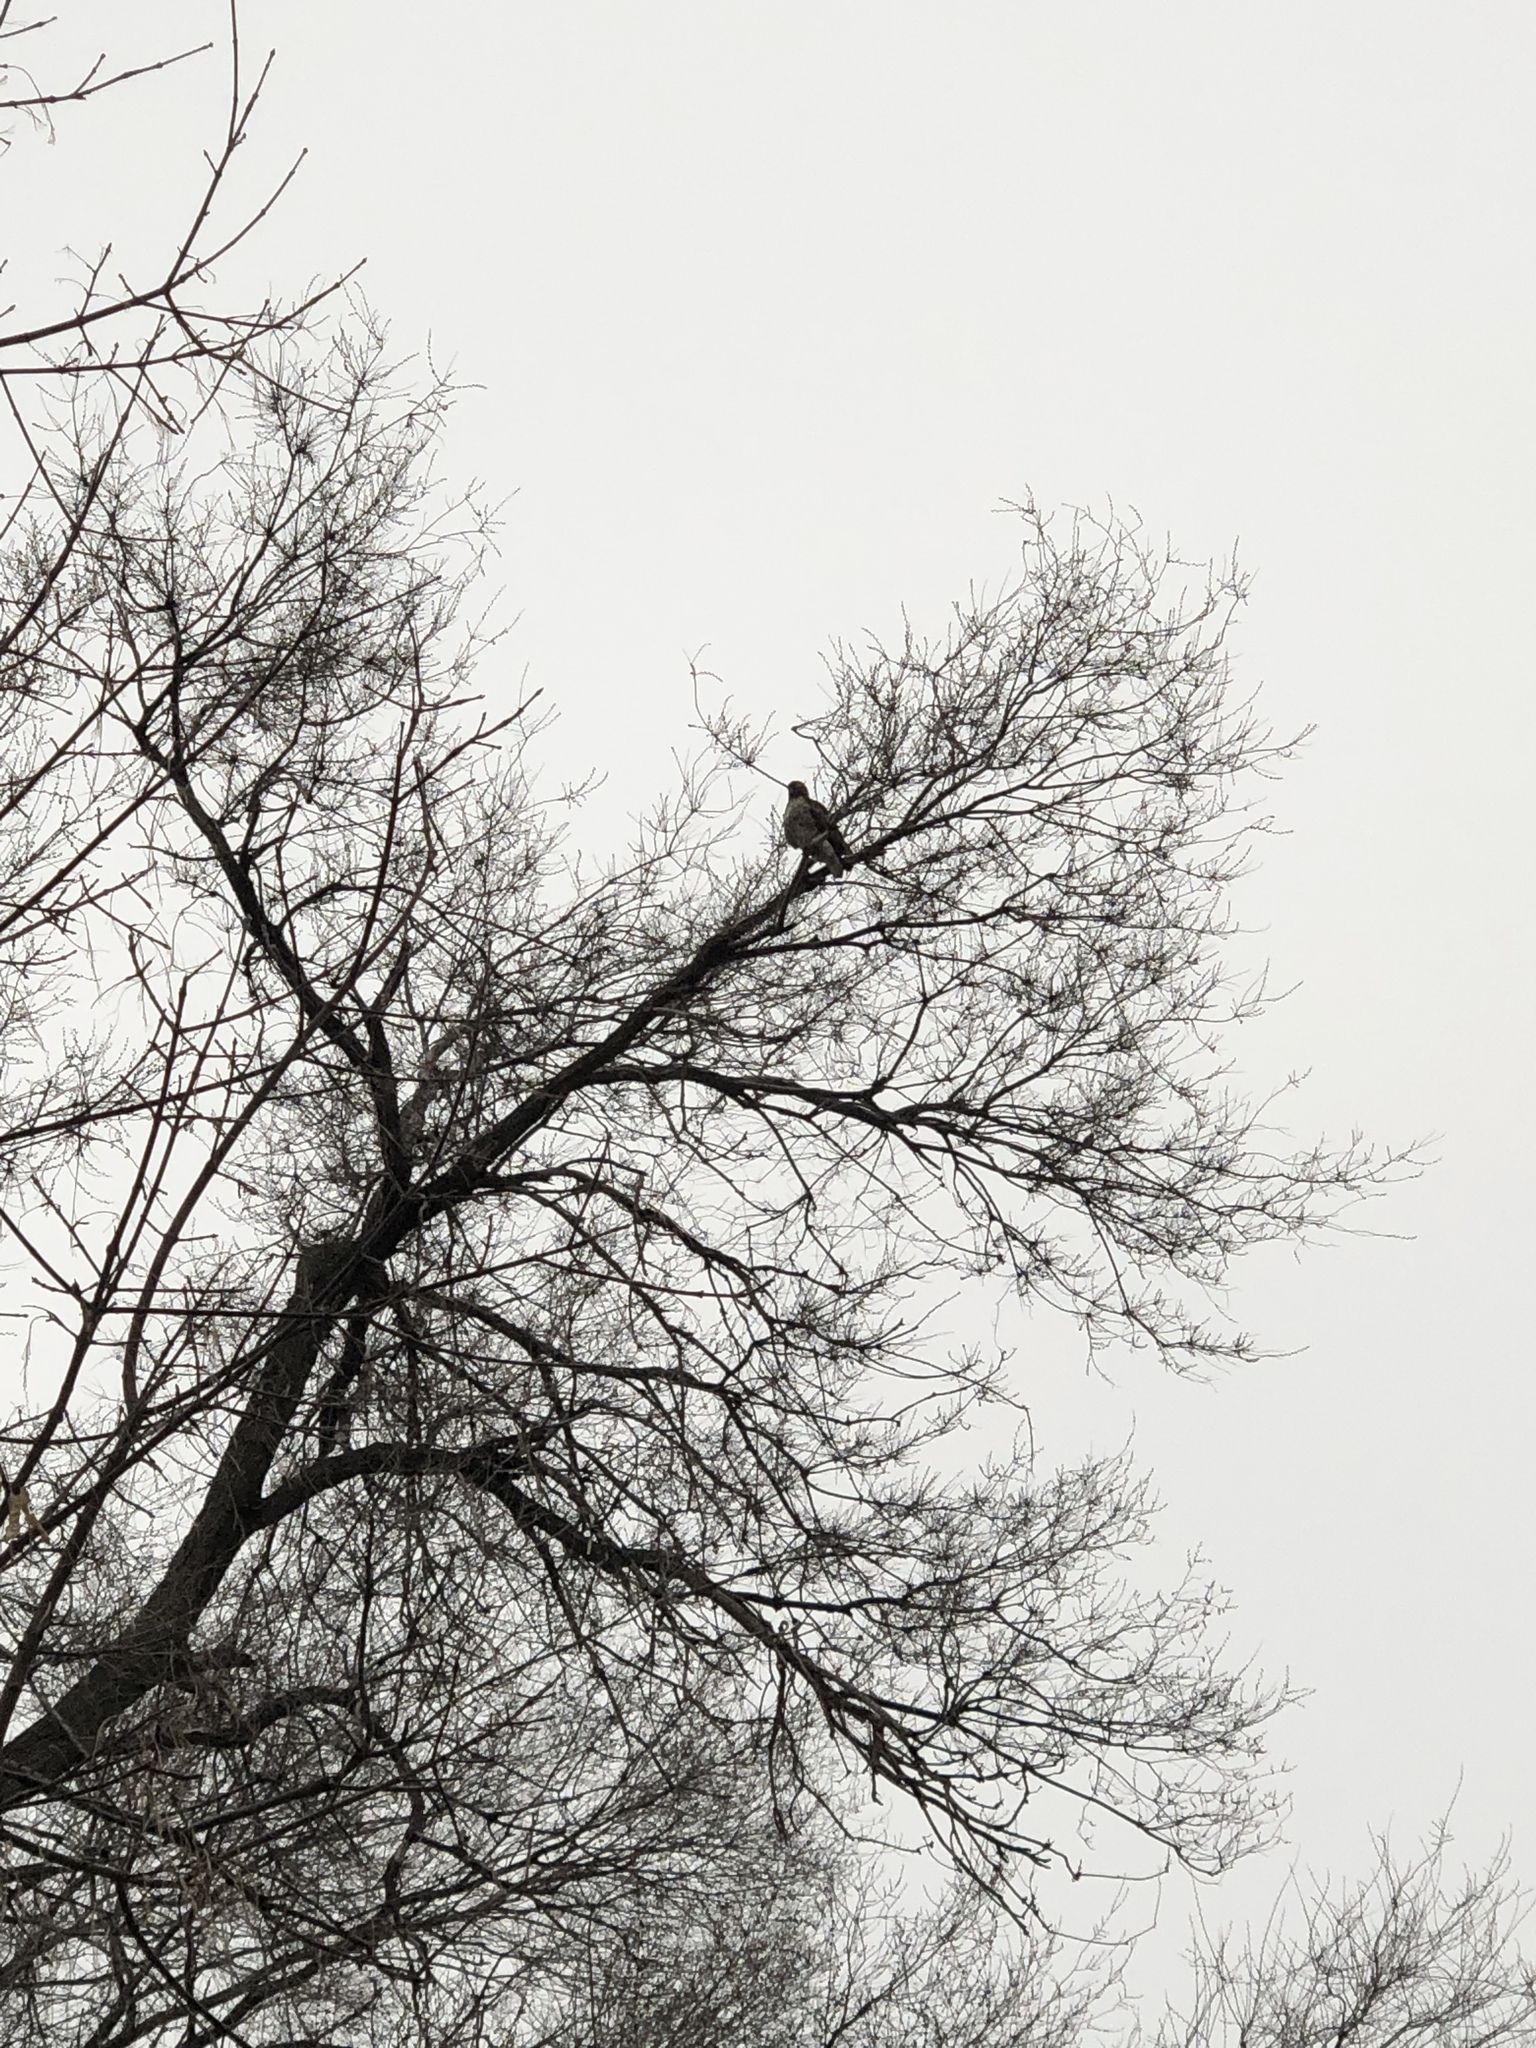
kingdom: Animalia
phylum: Chordata
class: Aves
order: Accipitriformes
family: Accipitridae
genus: Buteo
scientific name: Buteo jamaicensis
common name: Red-tailed hawk
